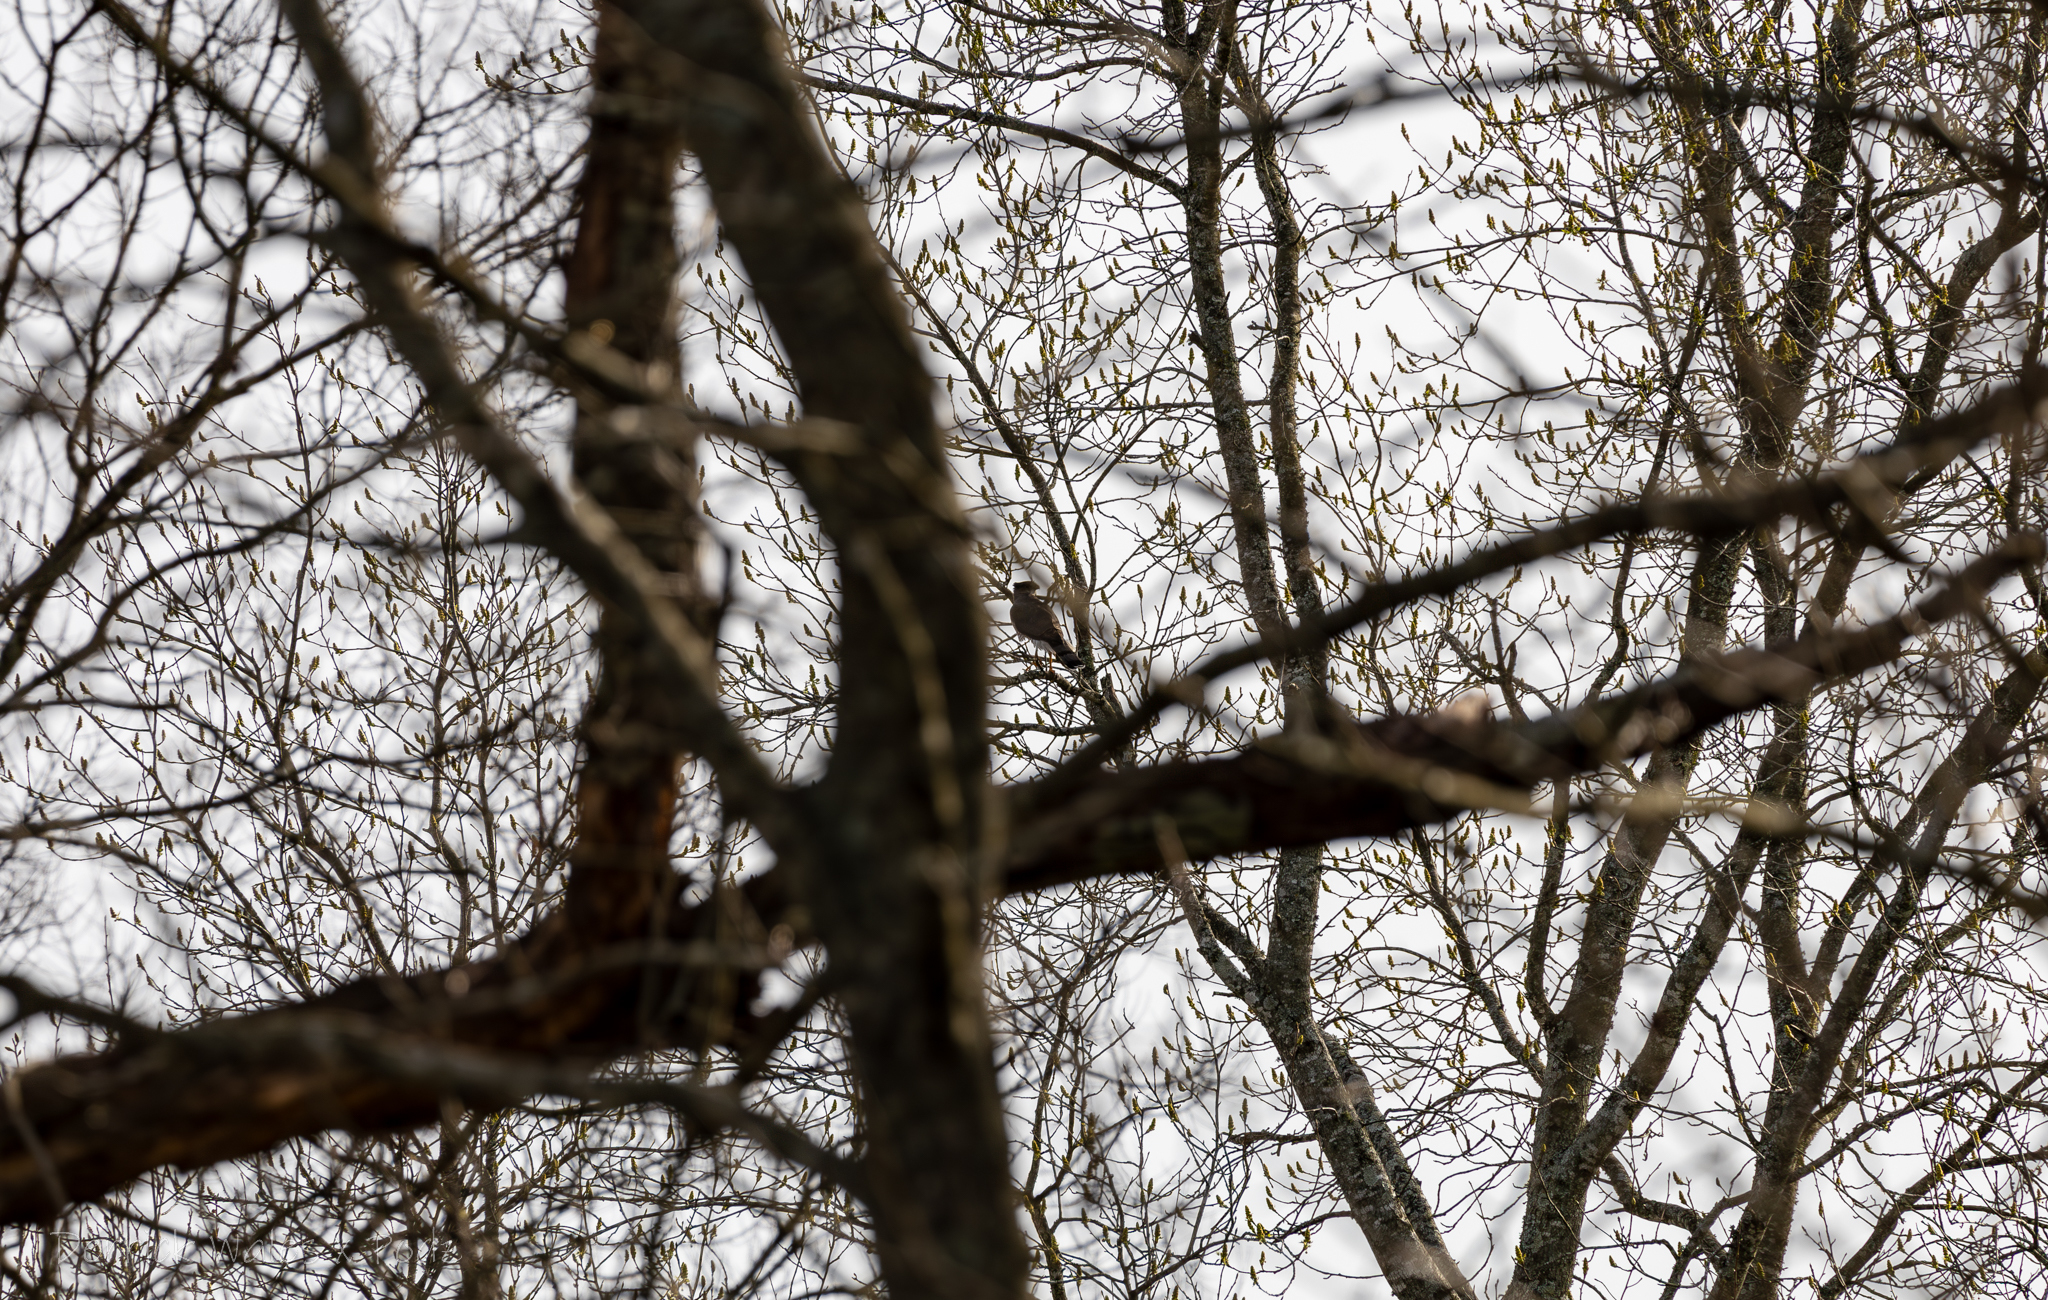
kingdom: Animalia
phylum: Chordata
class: Aves
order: Accipitriformes
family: Accipitridae
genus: Accipiter
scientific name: Accipiter cooperii
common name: Cooper's hawk
